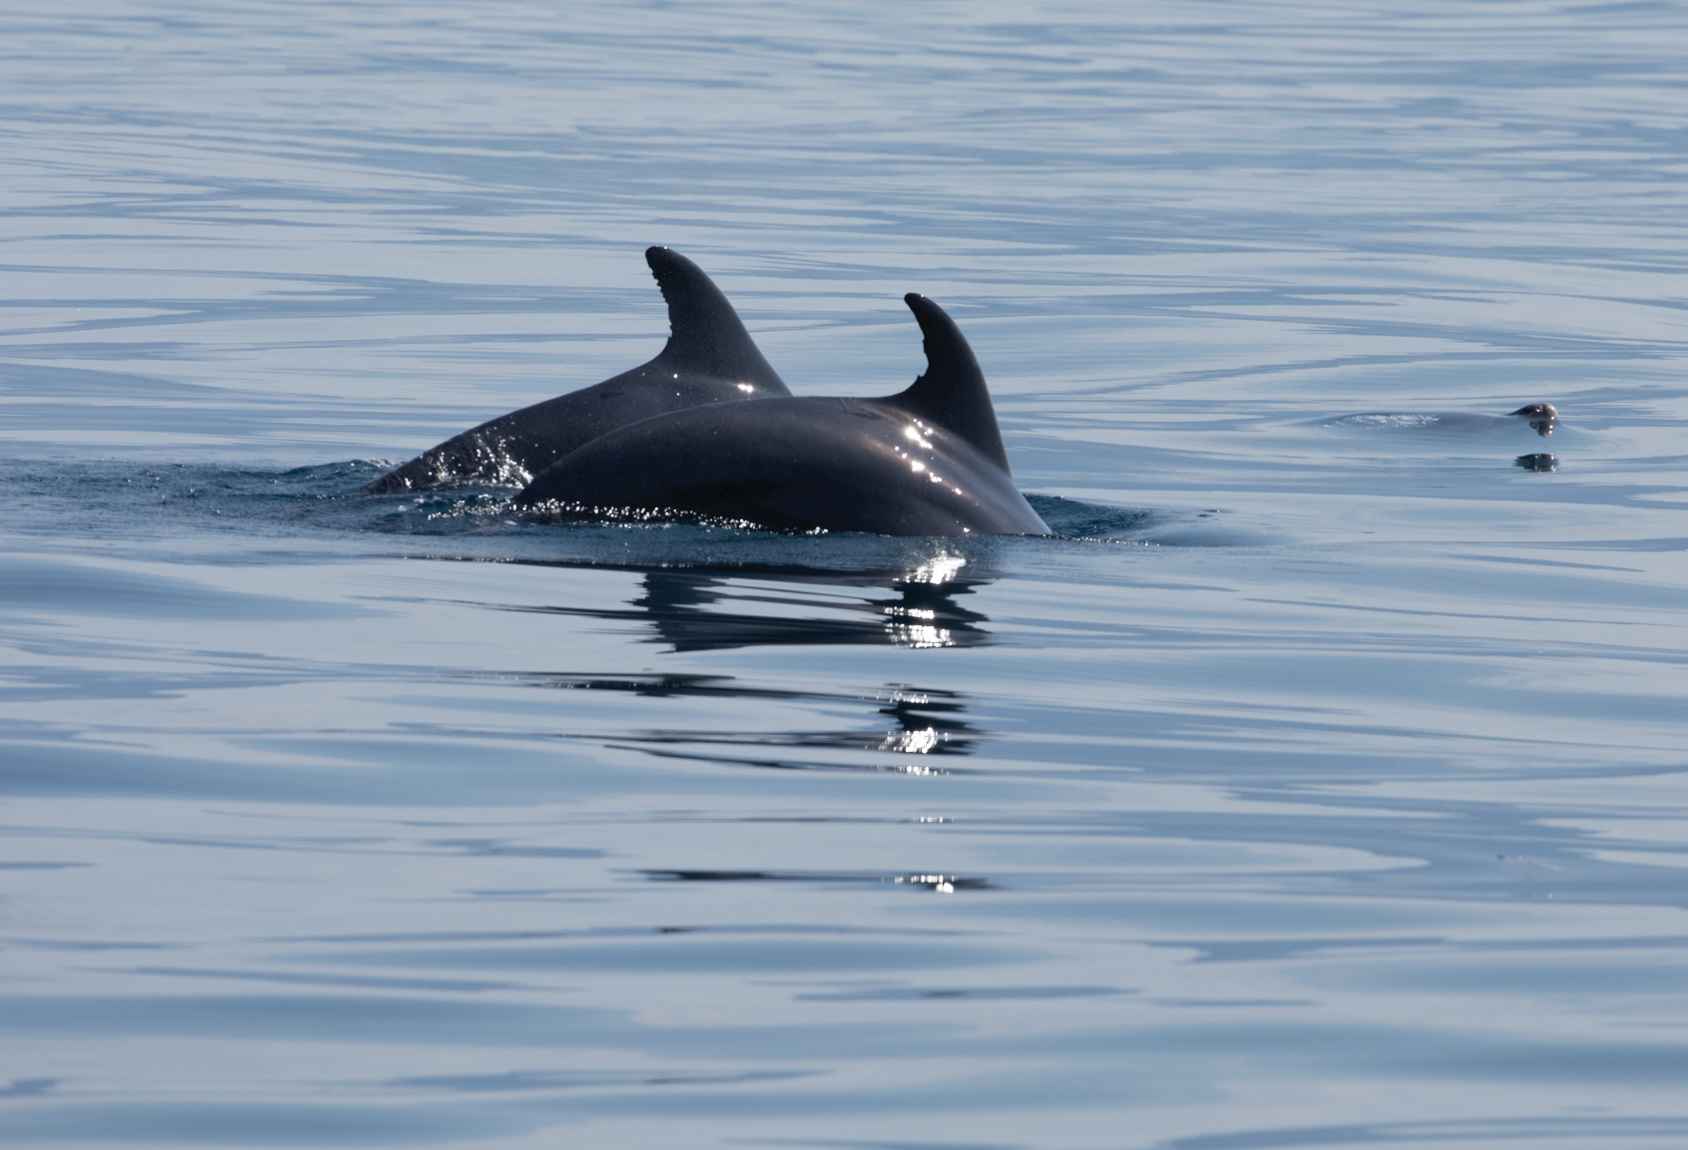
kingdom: Animalia
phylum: Chordata
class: Mammalia
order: Cetacea
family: Delphinidae
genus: Tursiops
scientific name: Tursiops truncatus
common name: Bottlenose dolphin
